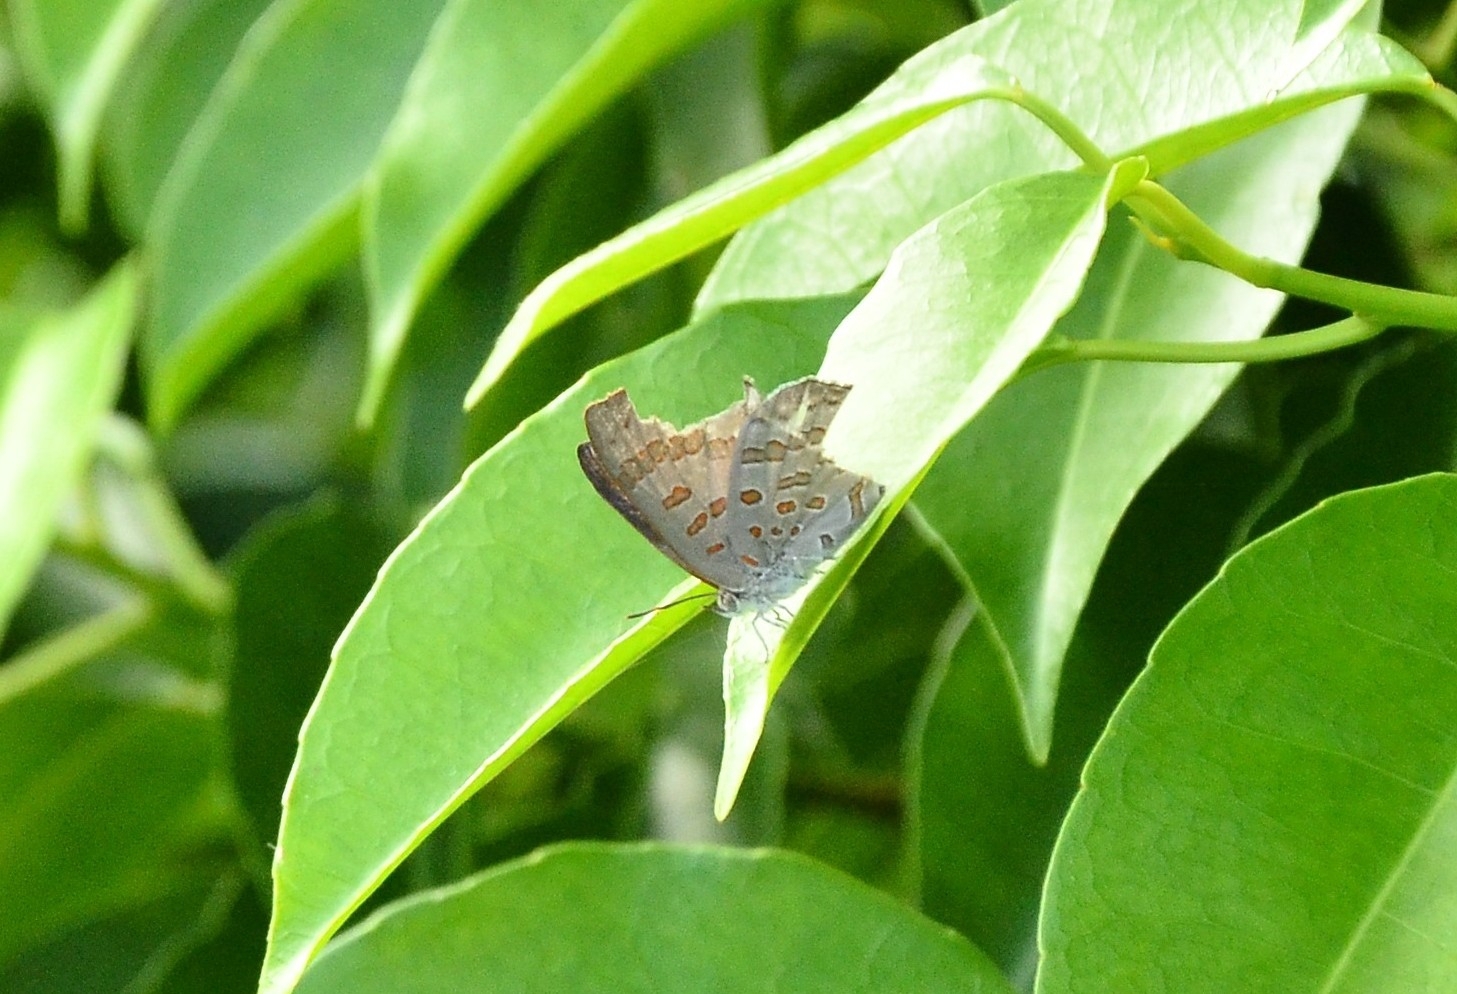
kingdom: Animalia
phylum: Arthropoda
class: Insecta
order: Lepidoptera
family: Lycaenidae
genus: Zesius
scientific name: Zesius chrysomallus
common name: Redspot
